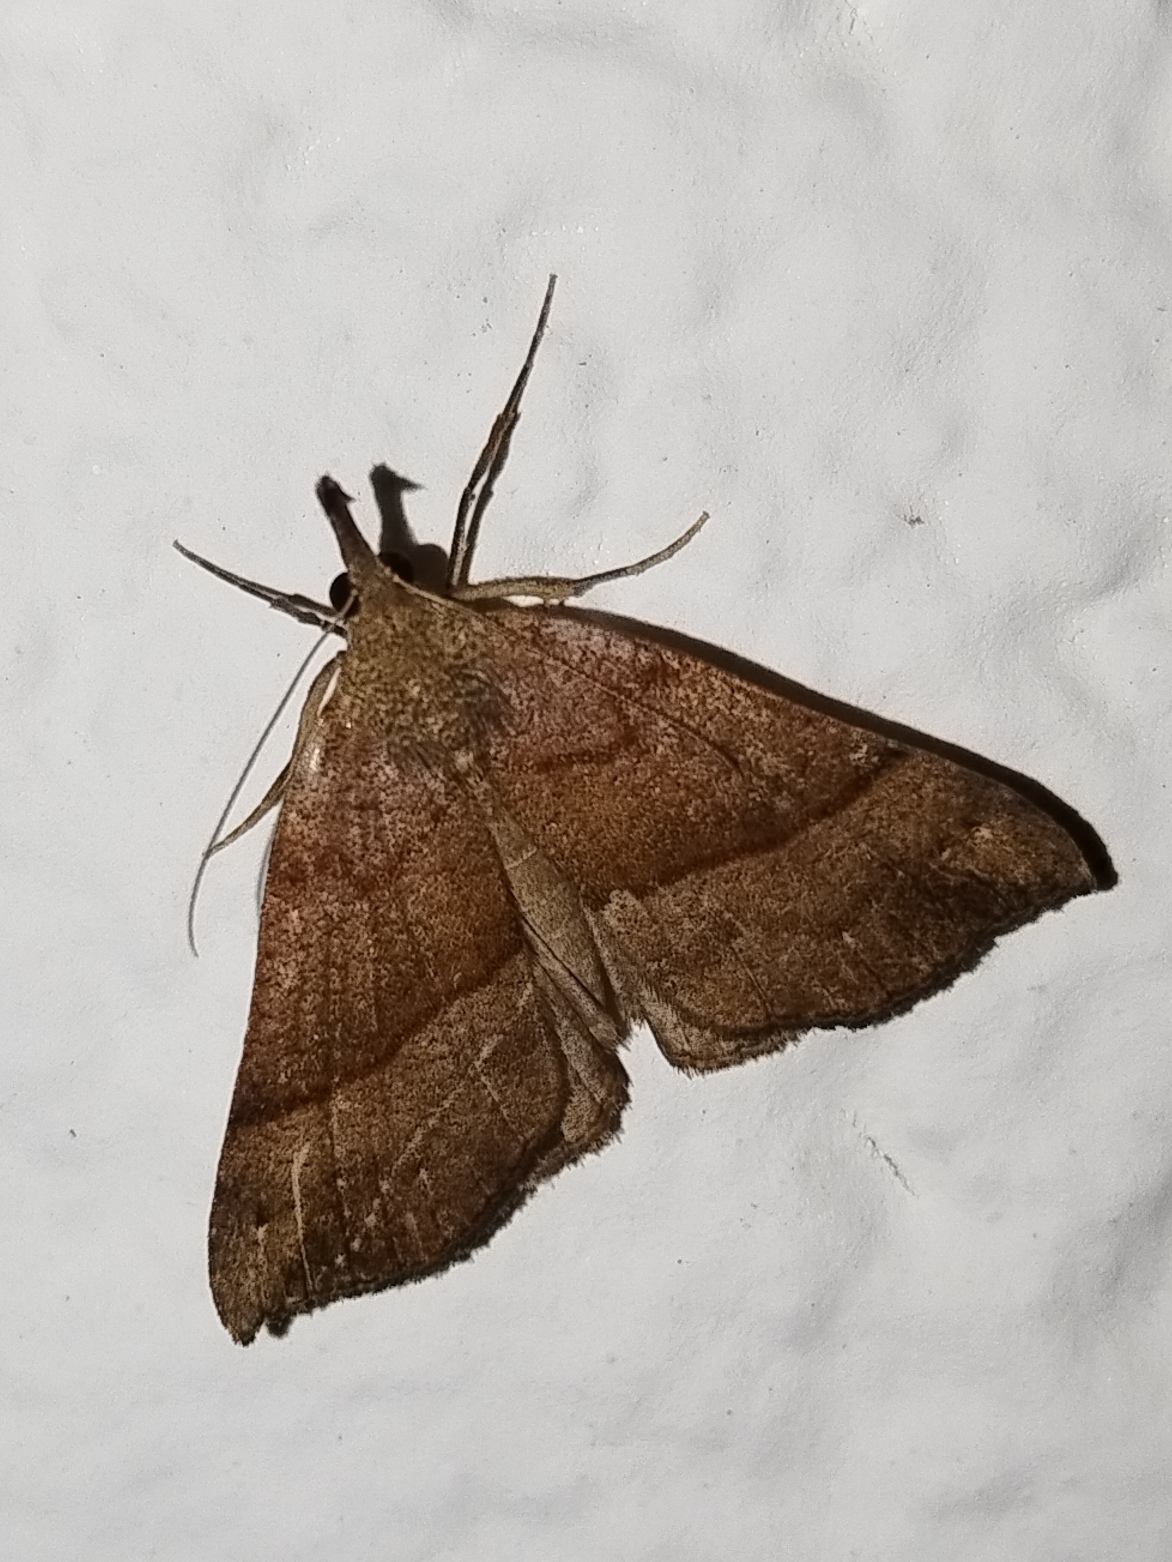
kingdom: Animalia
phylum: Arthropoda
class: Insecta
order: Lepidoptera
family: Erebidae
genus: Hypena
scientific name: Hypena proboscidalis
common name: Snout
